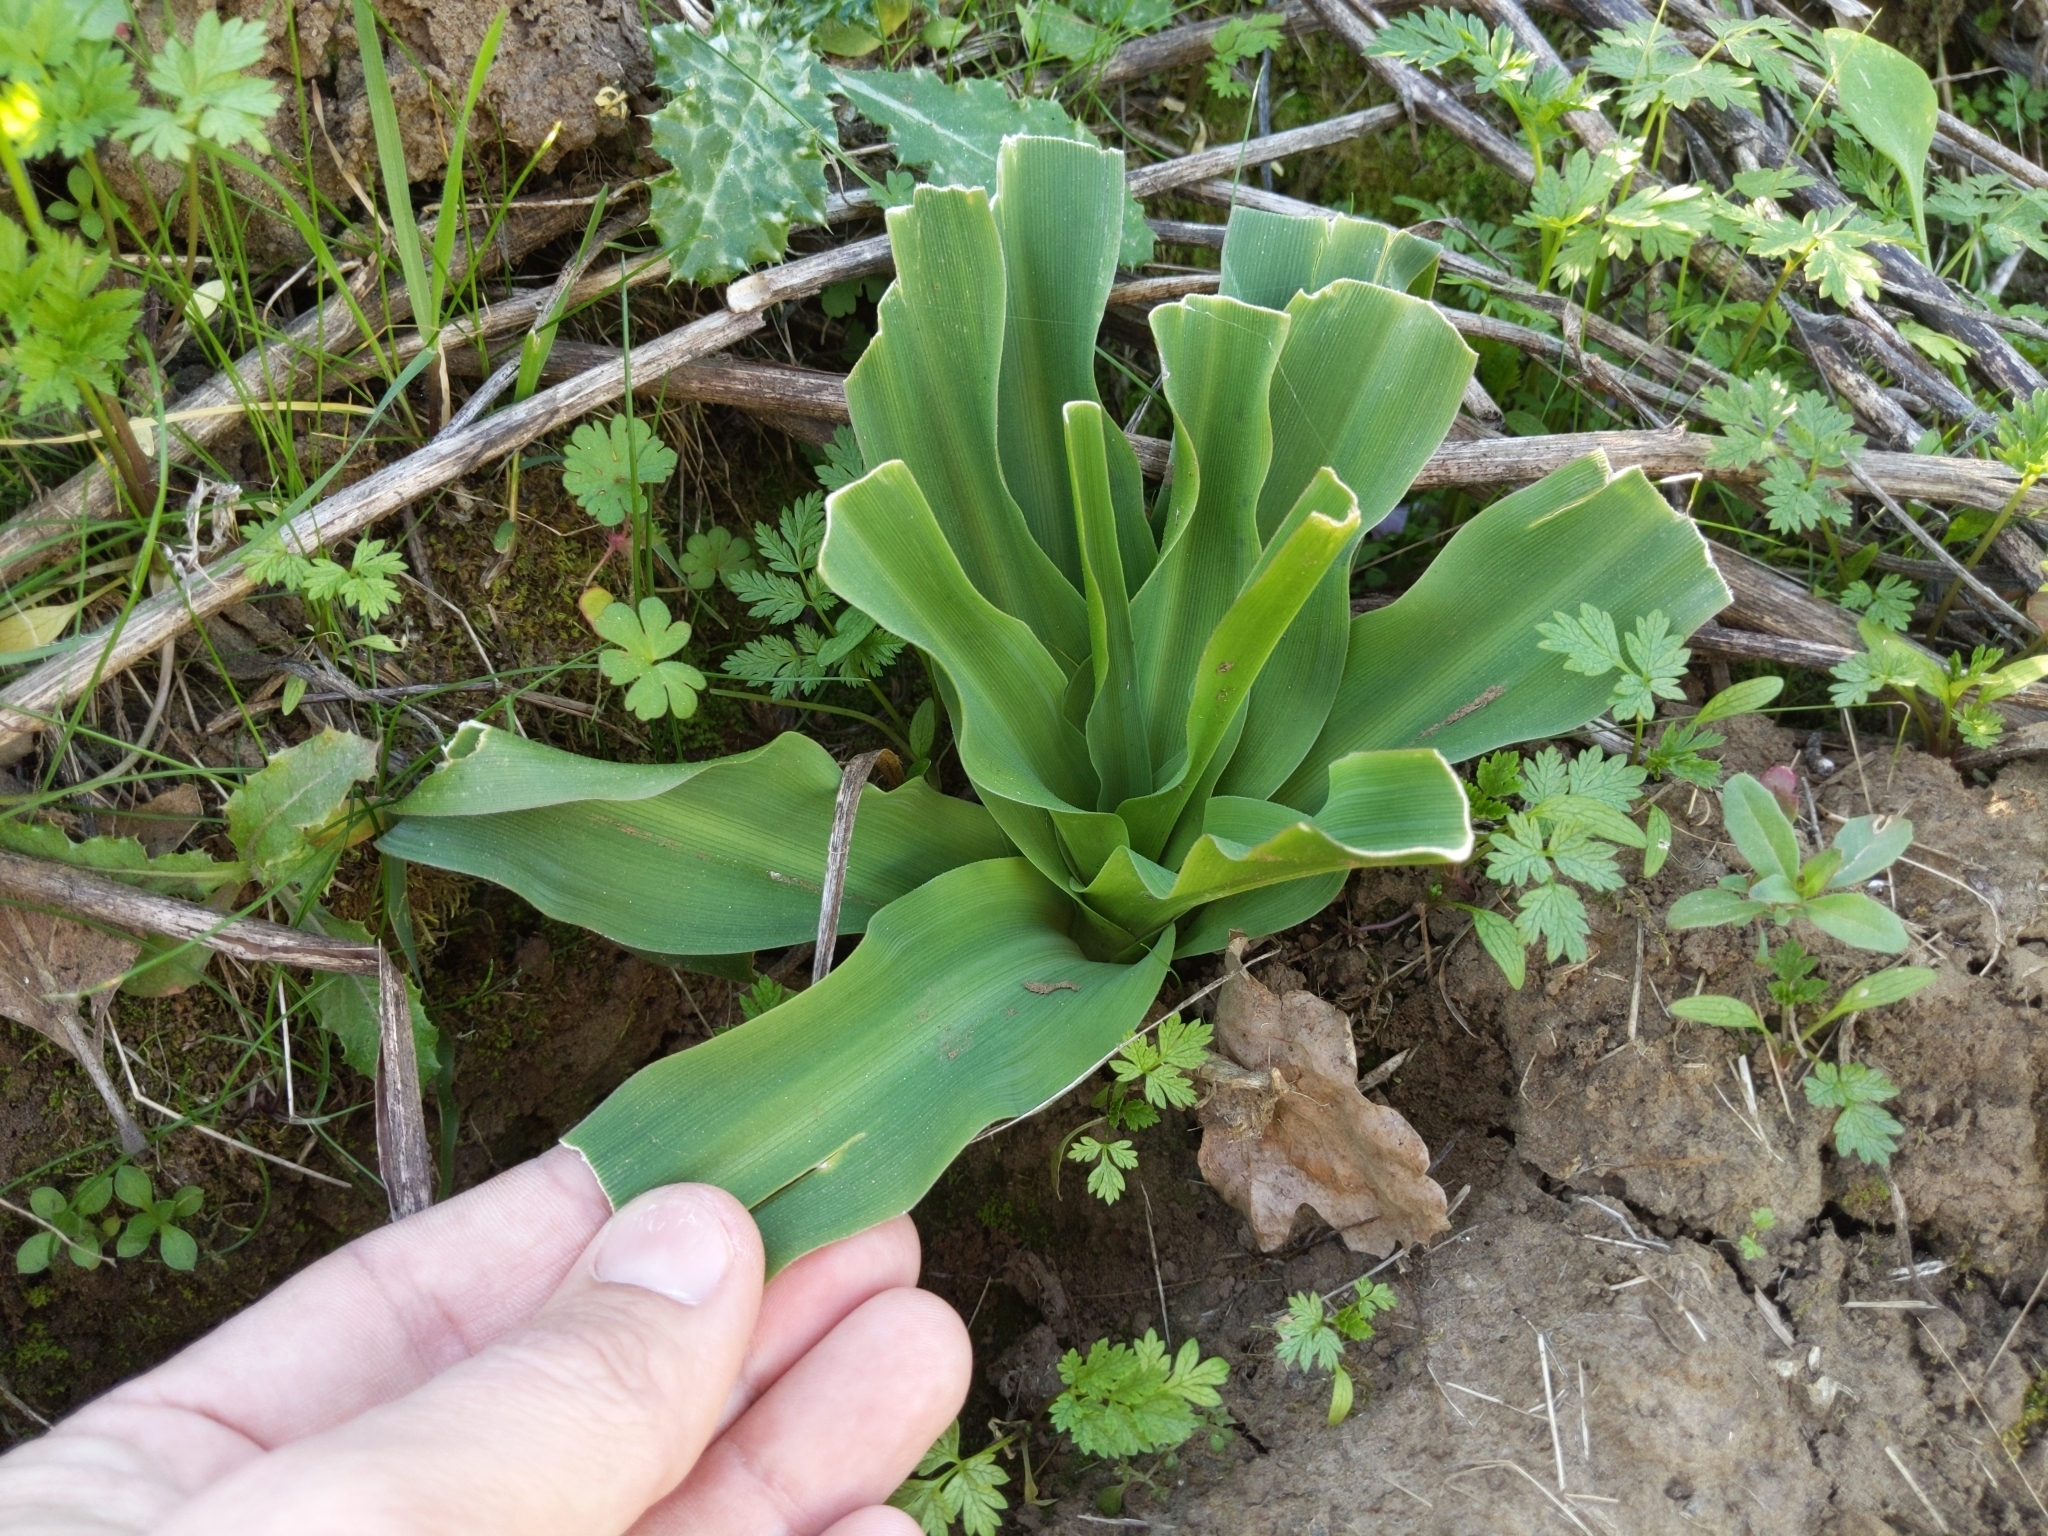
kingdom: Plantae
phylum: Tracheophyta
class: Liliopsida
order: Asparagales
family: Asparagaceae
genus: Chlorogalum
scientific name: Chlorogalum pomeridianum
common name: Amole
